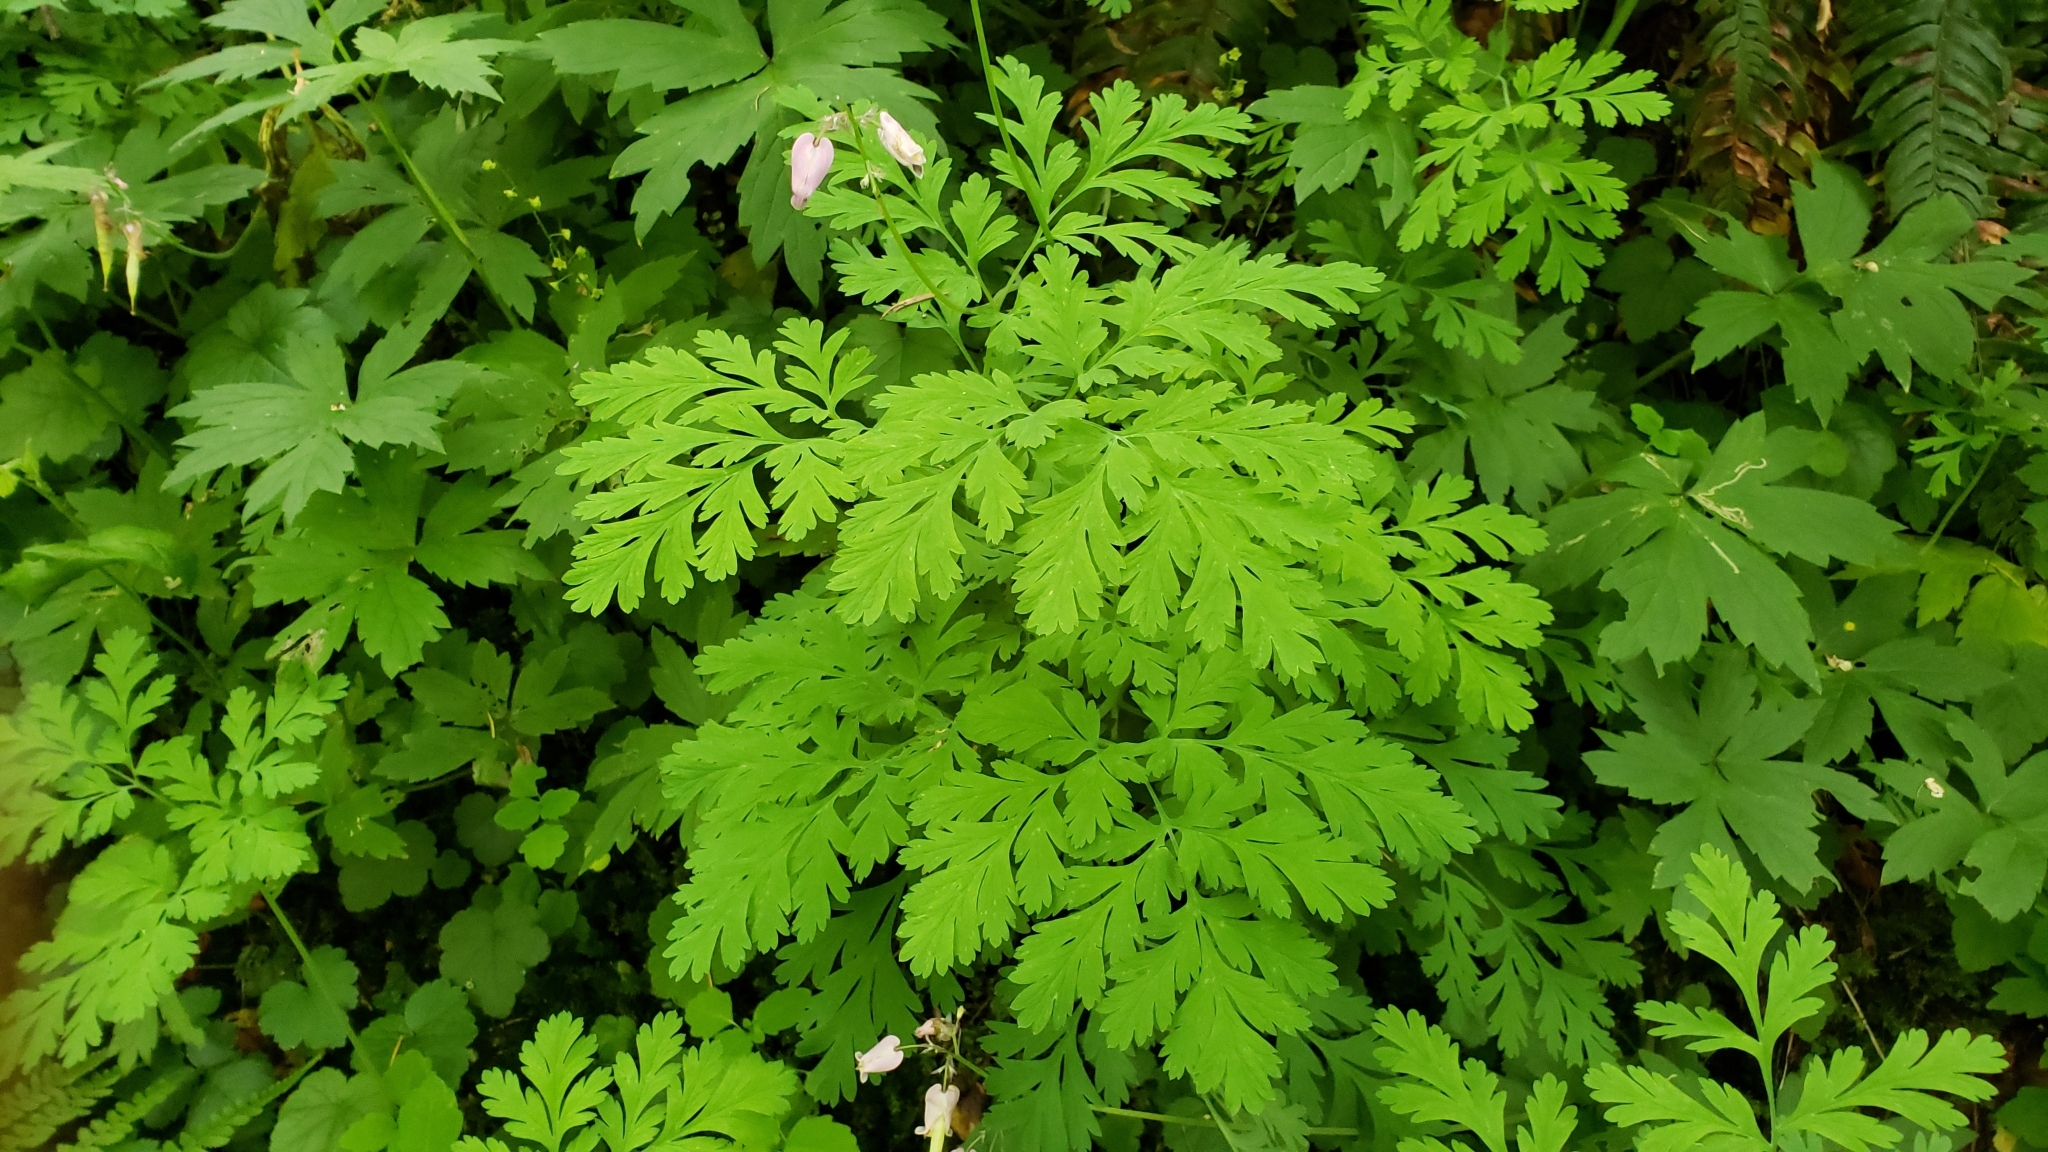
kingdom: Plantae
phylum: Tracheophyta
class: Magnoliopsida
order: Ranunculales
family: Papaveraceae
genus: Dicentra
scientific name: Dicentra formosa
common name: Bleeding-heart
